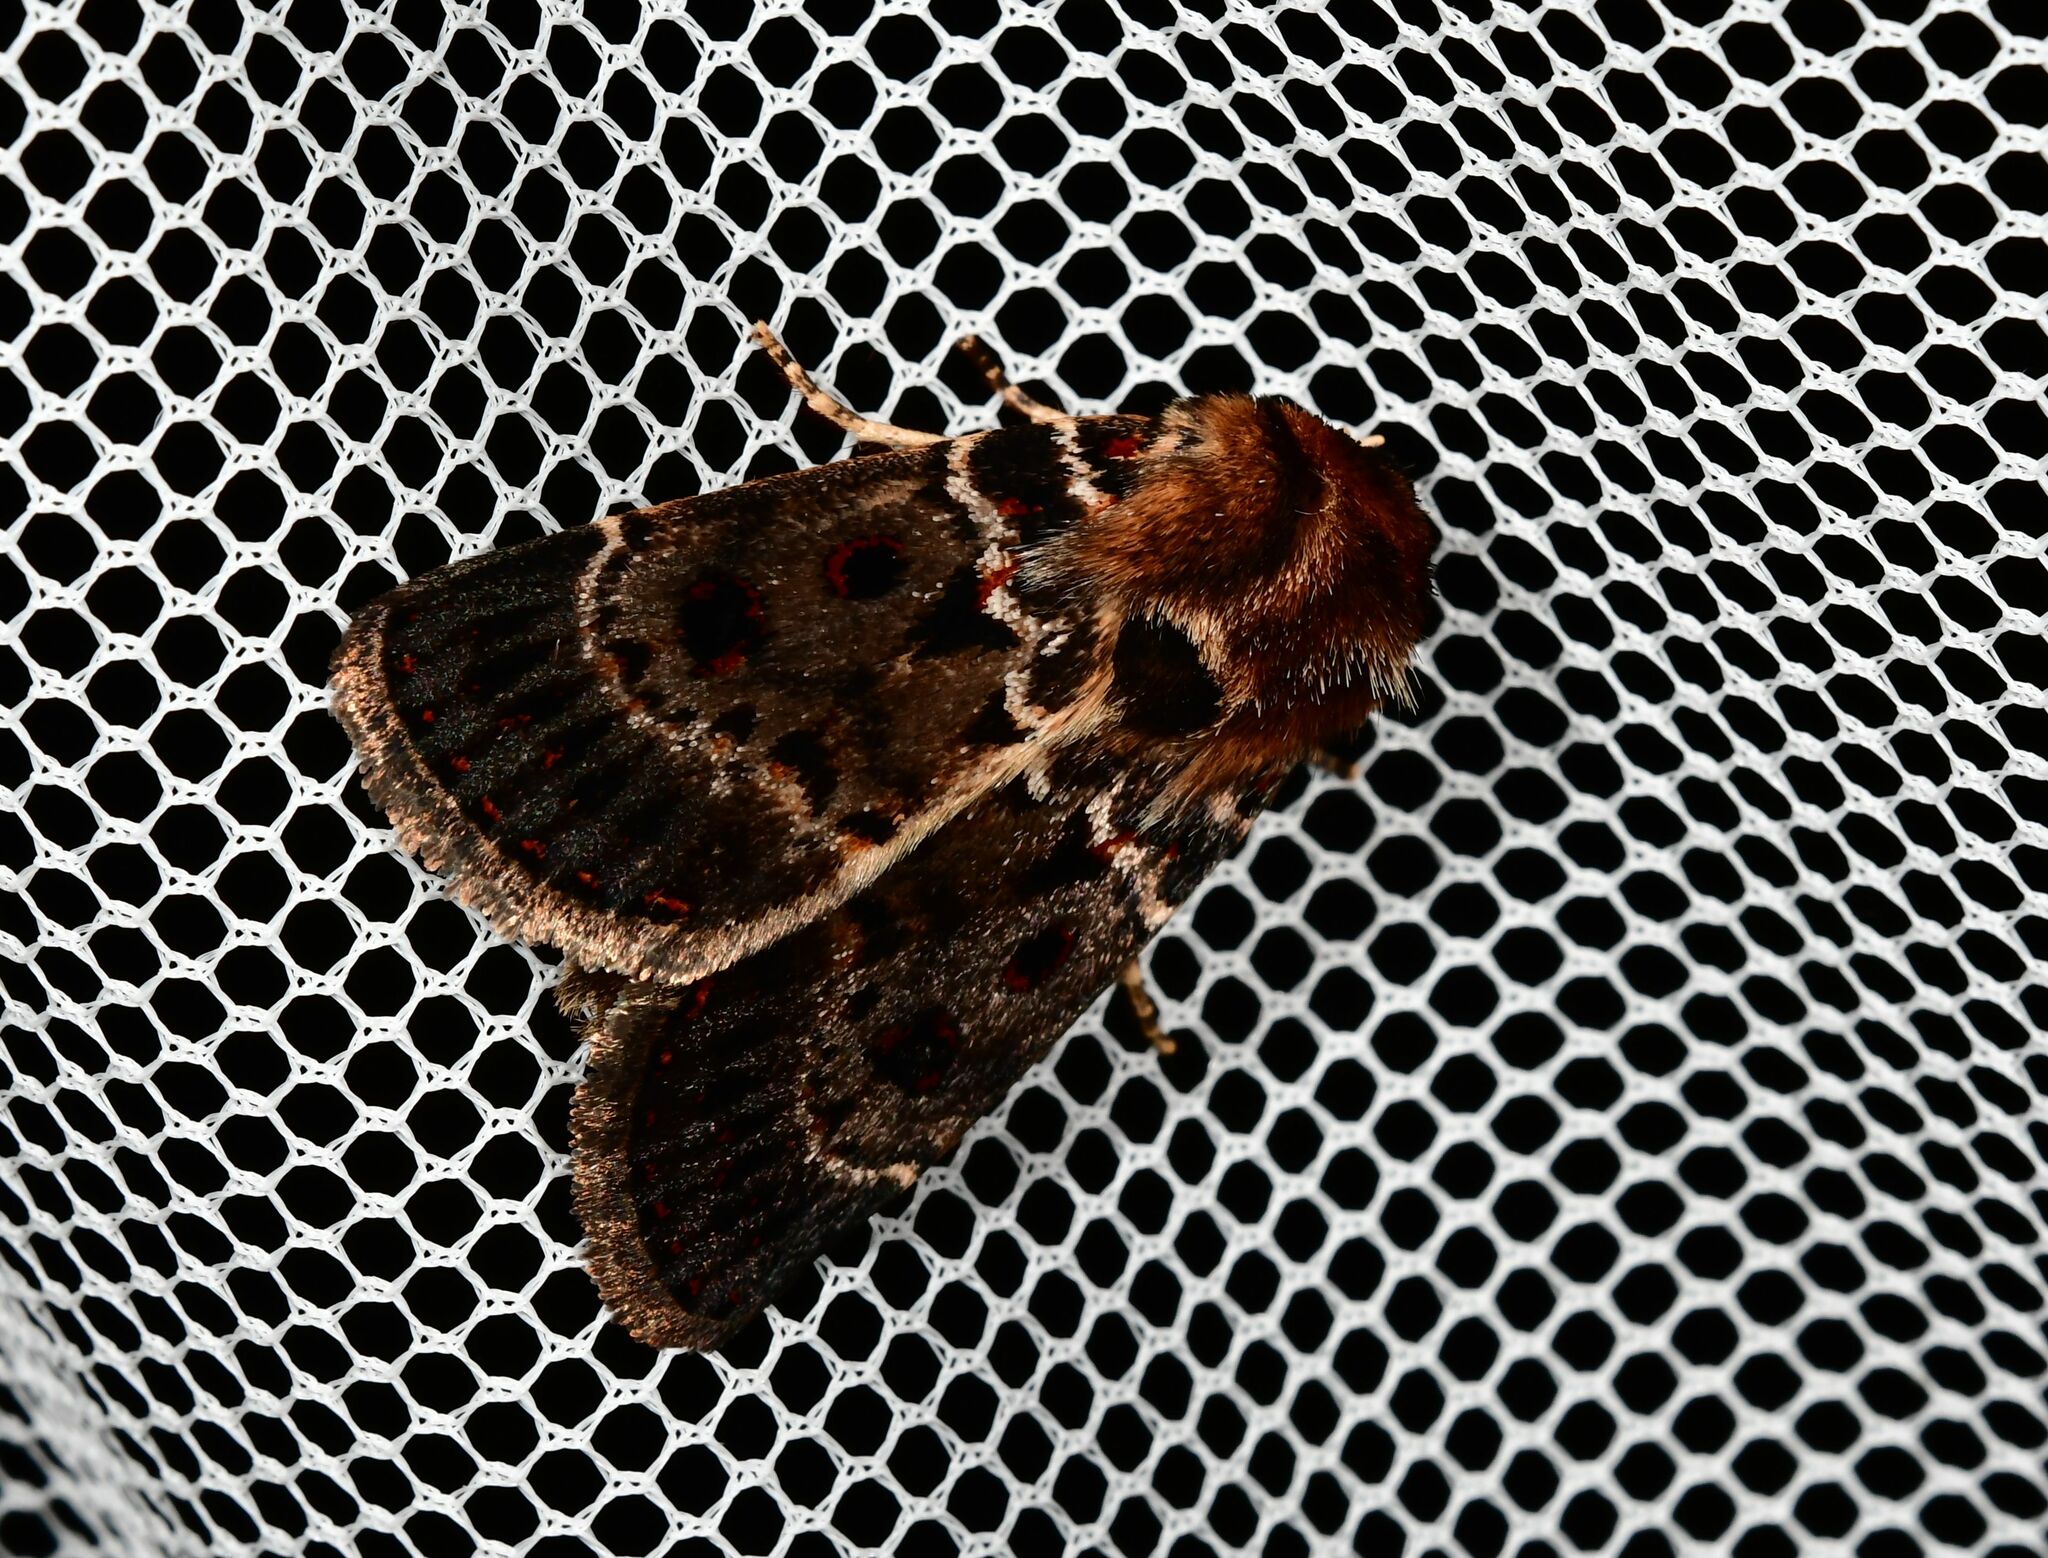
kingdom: Animalia
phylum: Arthropoda
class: Insecta
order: Lepidoptera
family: Noctuidae
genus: Proteuxoa
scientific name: Proteuxoa sanguinipuncta
